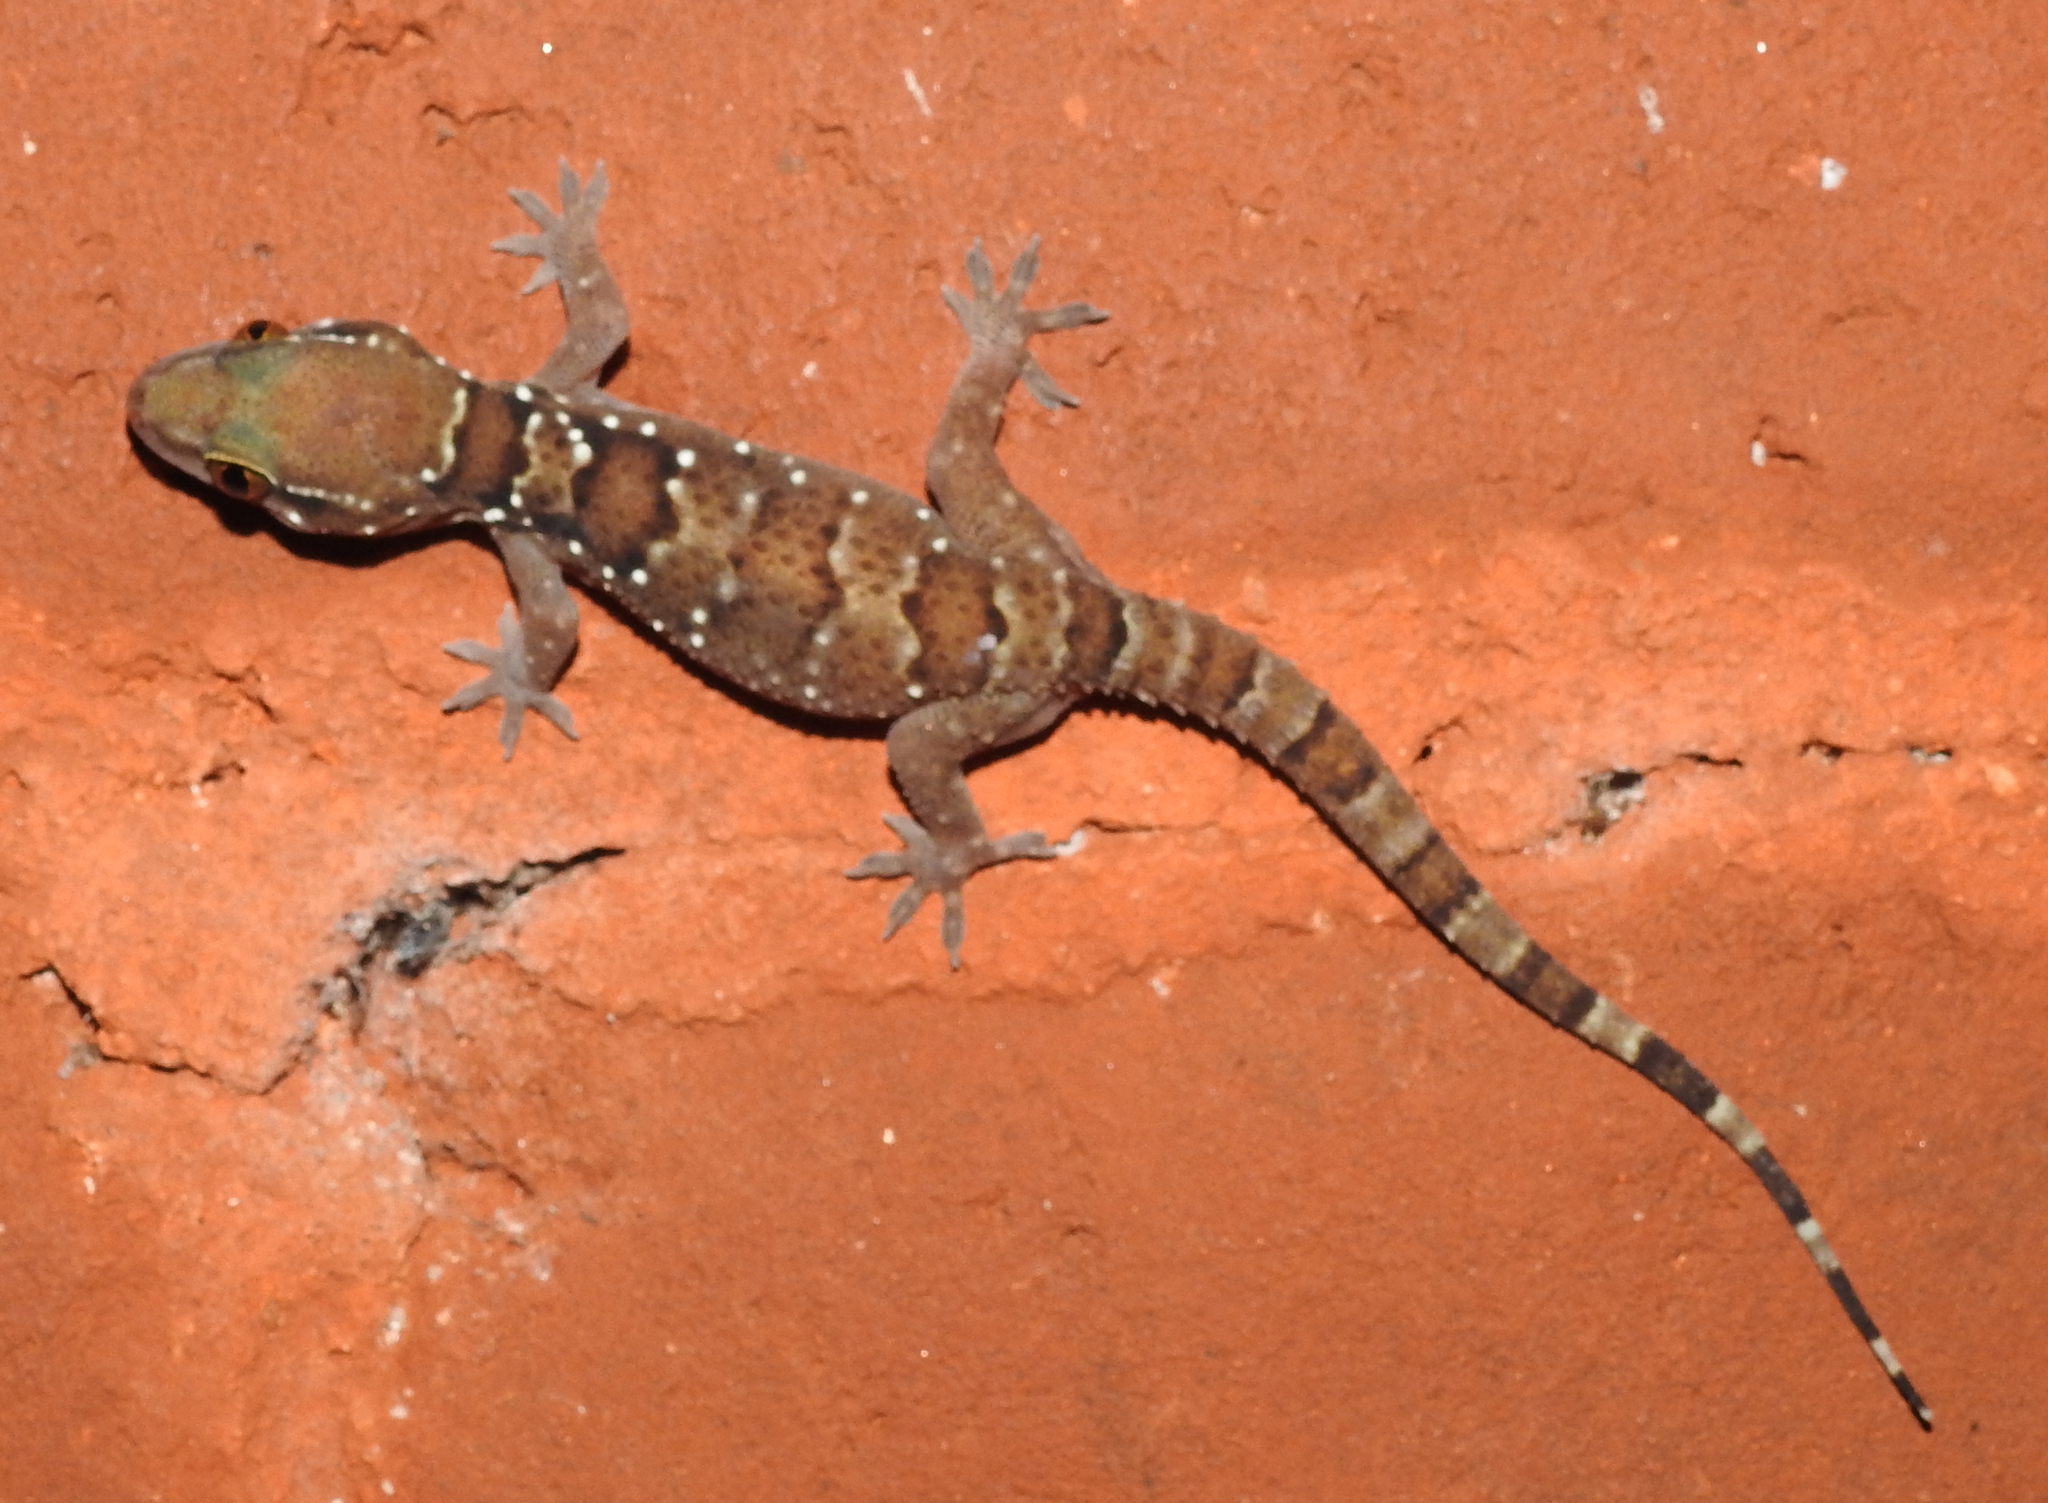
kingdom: Animalia
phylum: Chordata
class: Squamata
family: Gekkonidae
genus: Hemidactylus
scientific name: Hemidactylus triedrus
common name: Blotched house gecko
